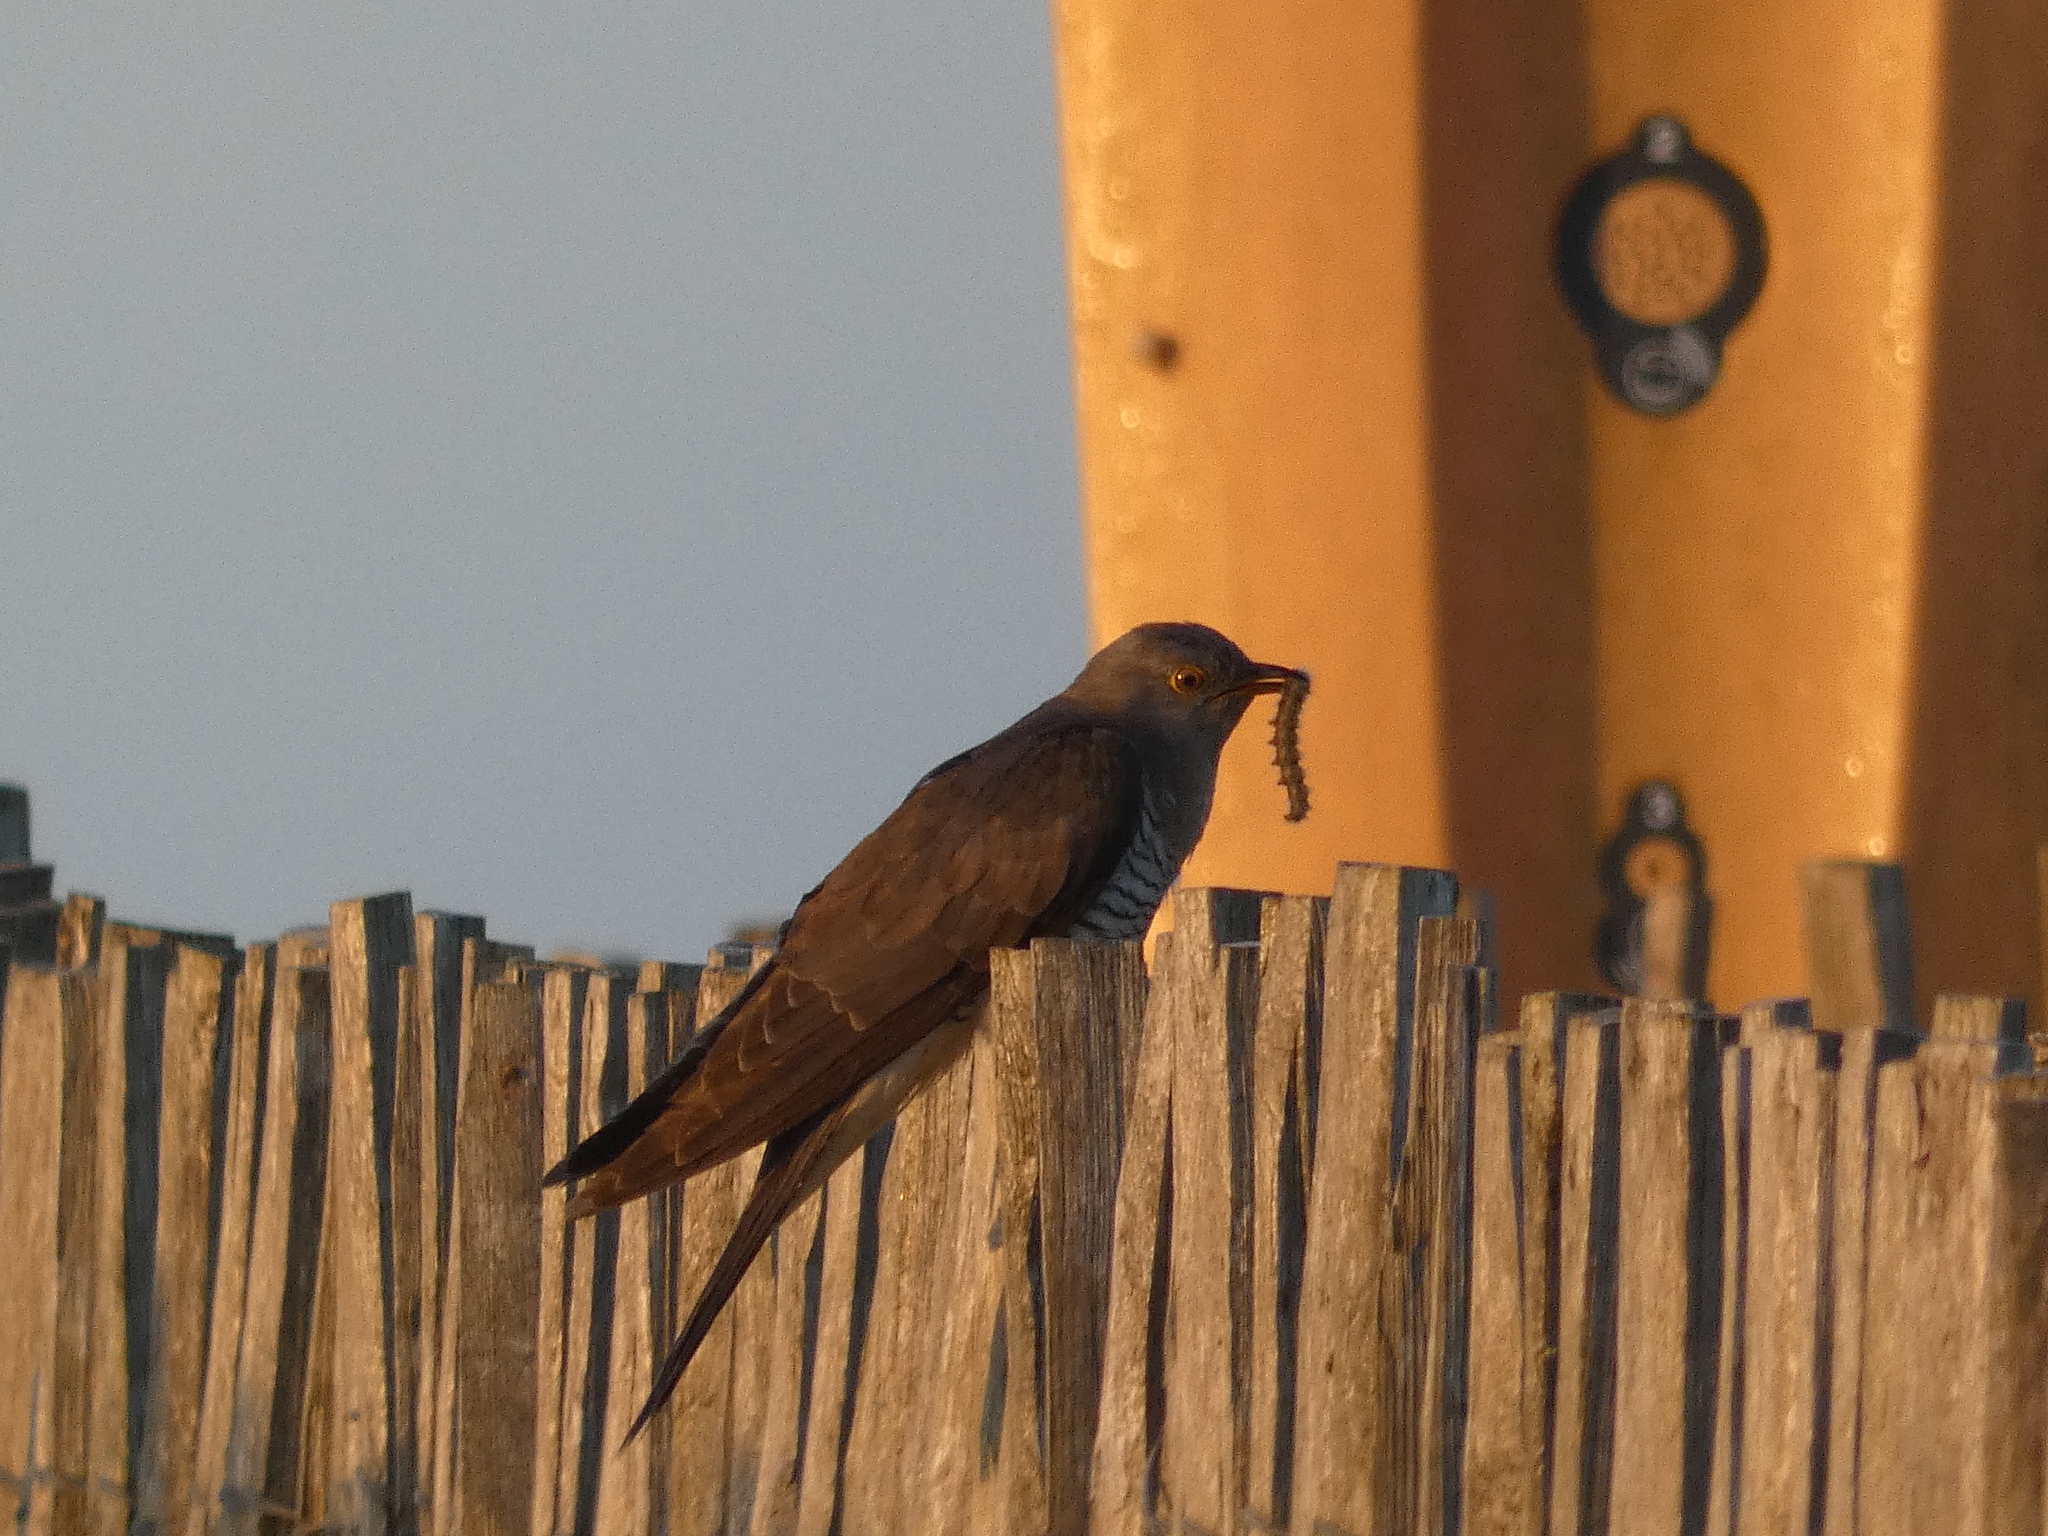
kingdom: Animalia
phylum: Chordata
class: Aves
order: Cuculiformes
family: Cuculidae
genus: Cuculus
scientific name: Cuculus canorus
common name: Common cuckoo
